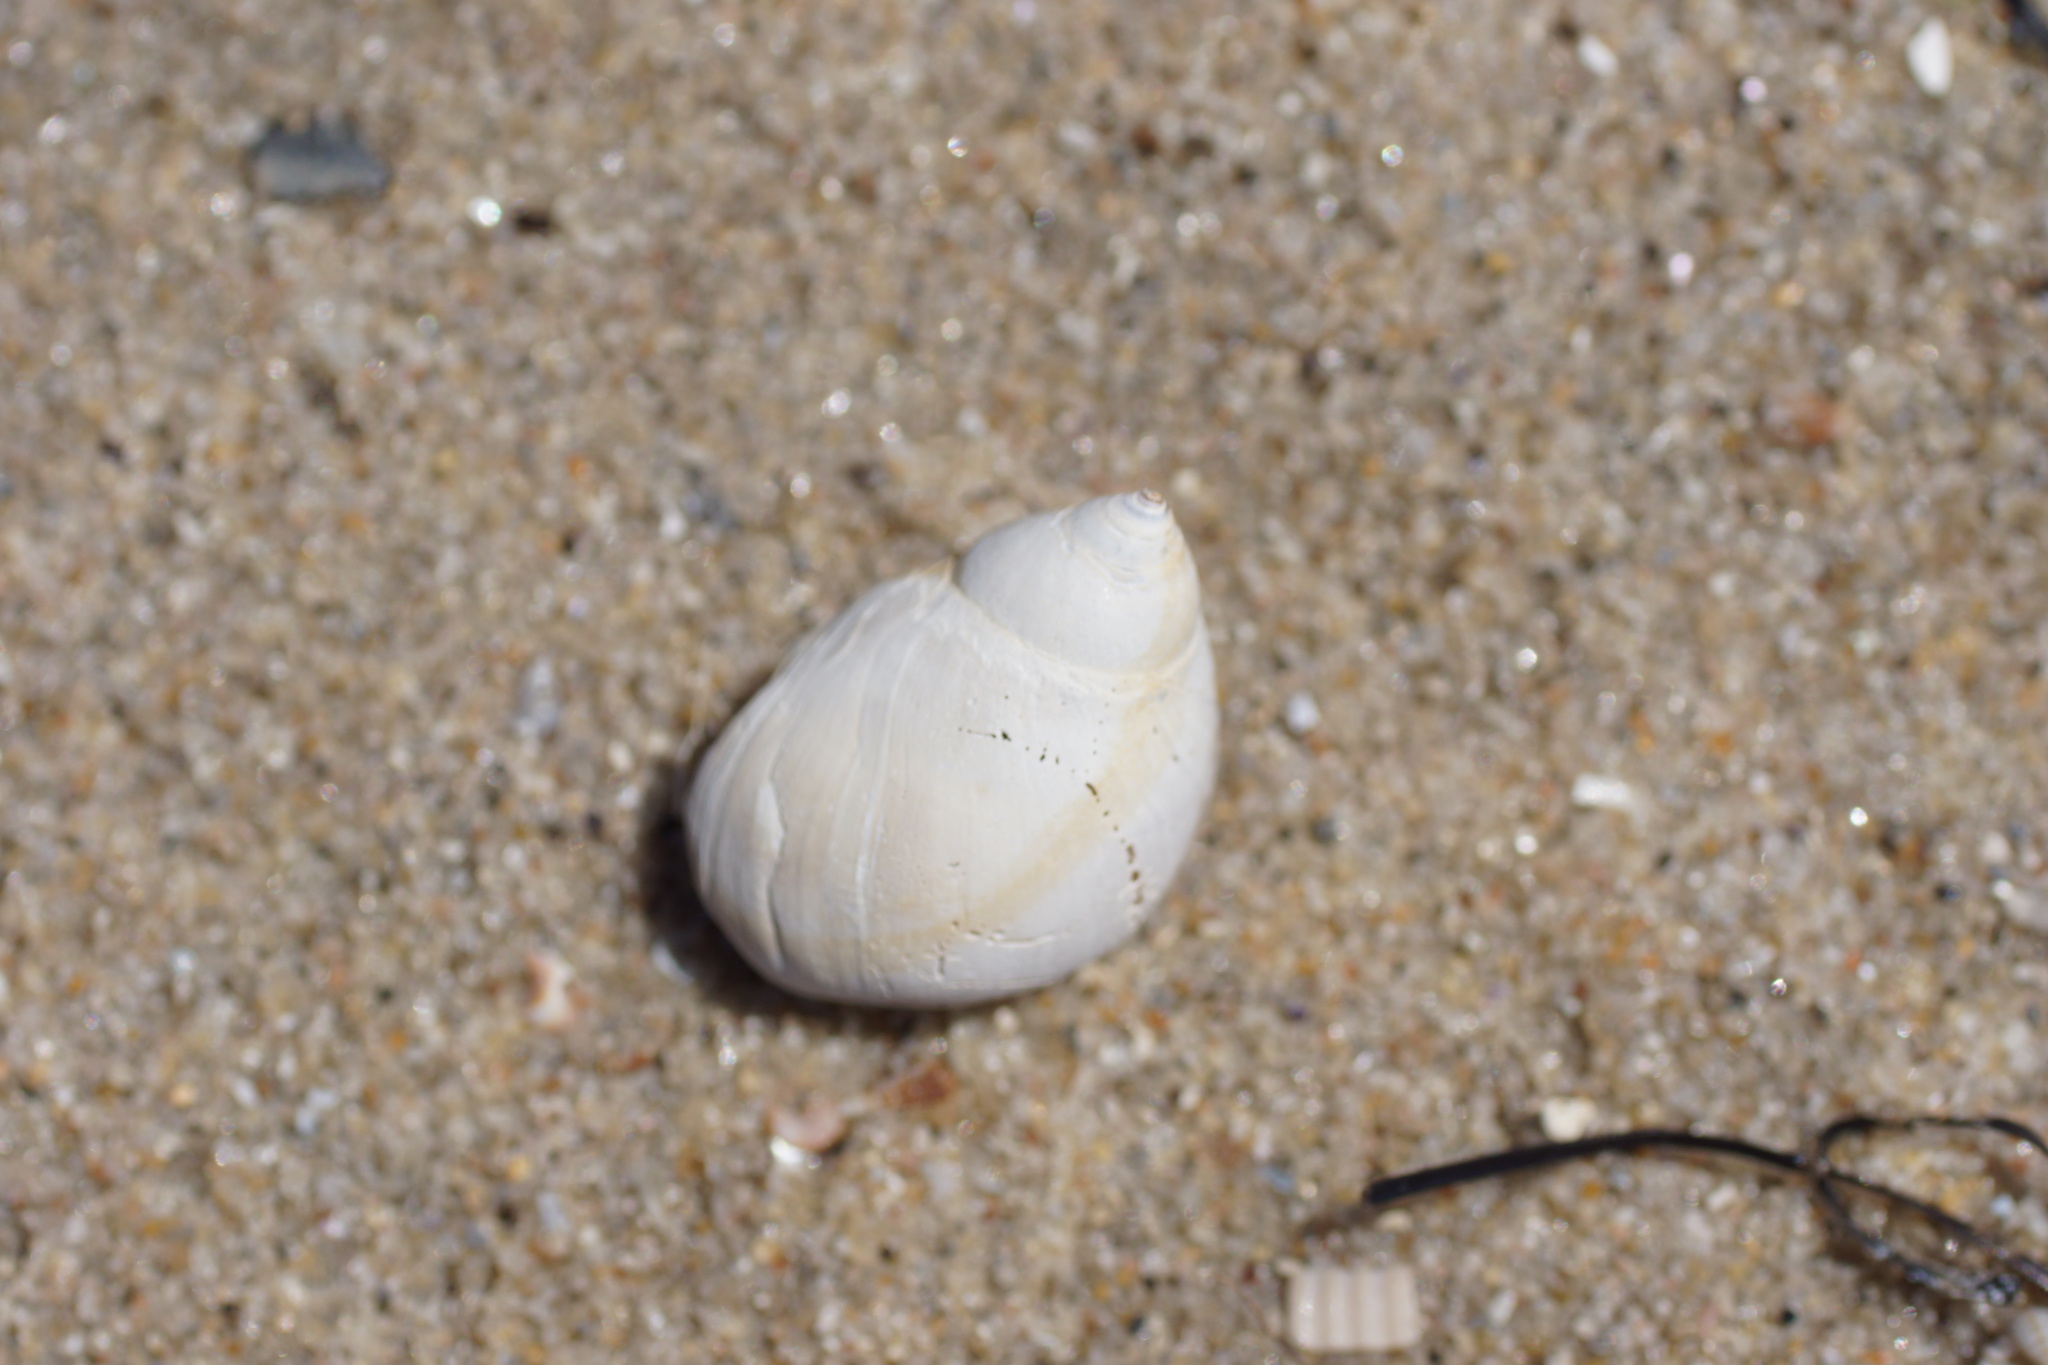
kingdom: Animalia
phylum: Mollusca
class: Gastropoda
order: Littorinimorpha
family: Naticidae
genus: Conuber
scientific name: Conuber conicum
